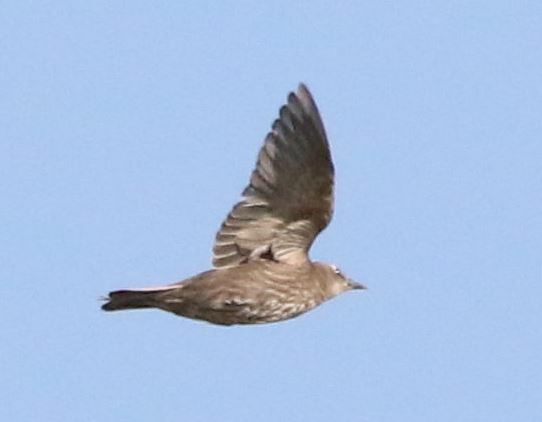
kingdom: Animalia
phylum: Chordata
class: Aves
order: Passeriformes
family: Sturnidae
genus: Sturnus
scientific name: Sturnus vulgaris
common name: Common starling
